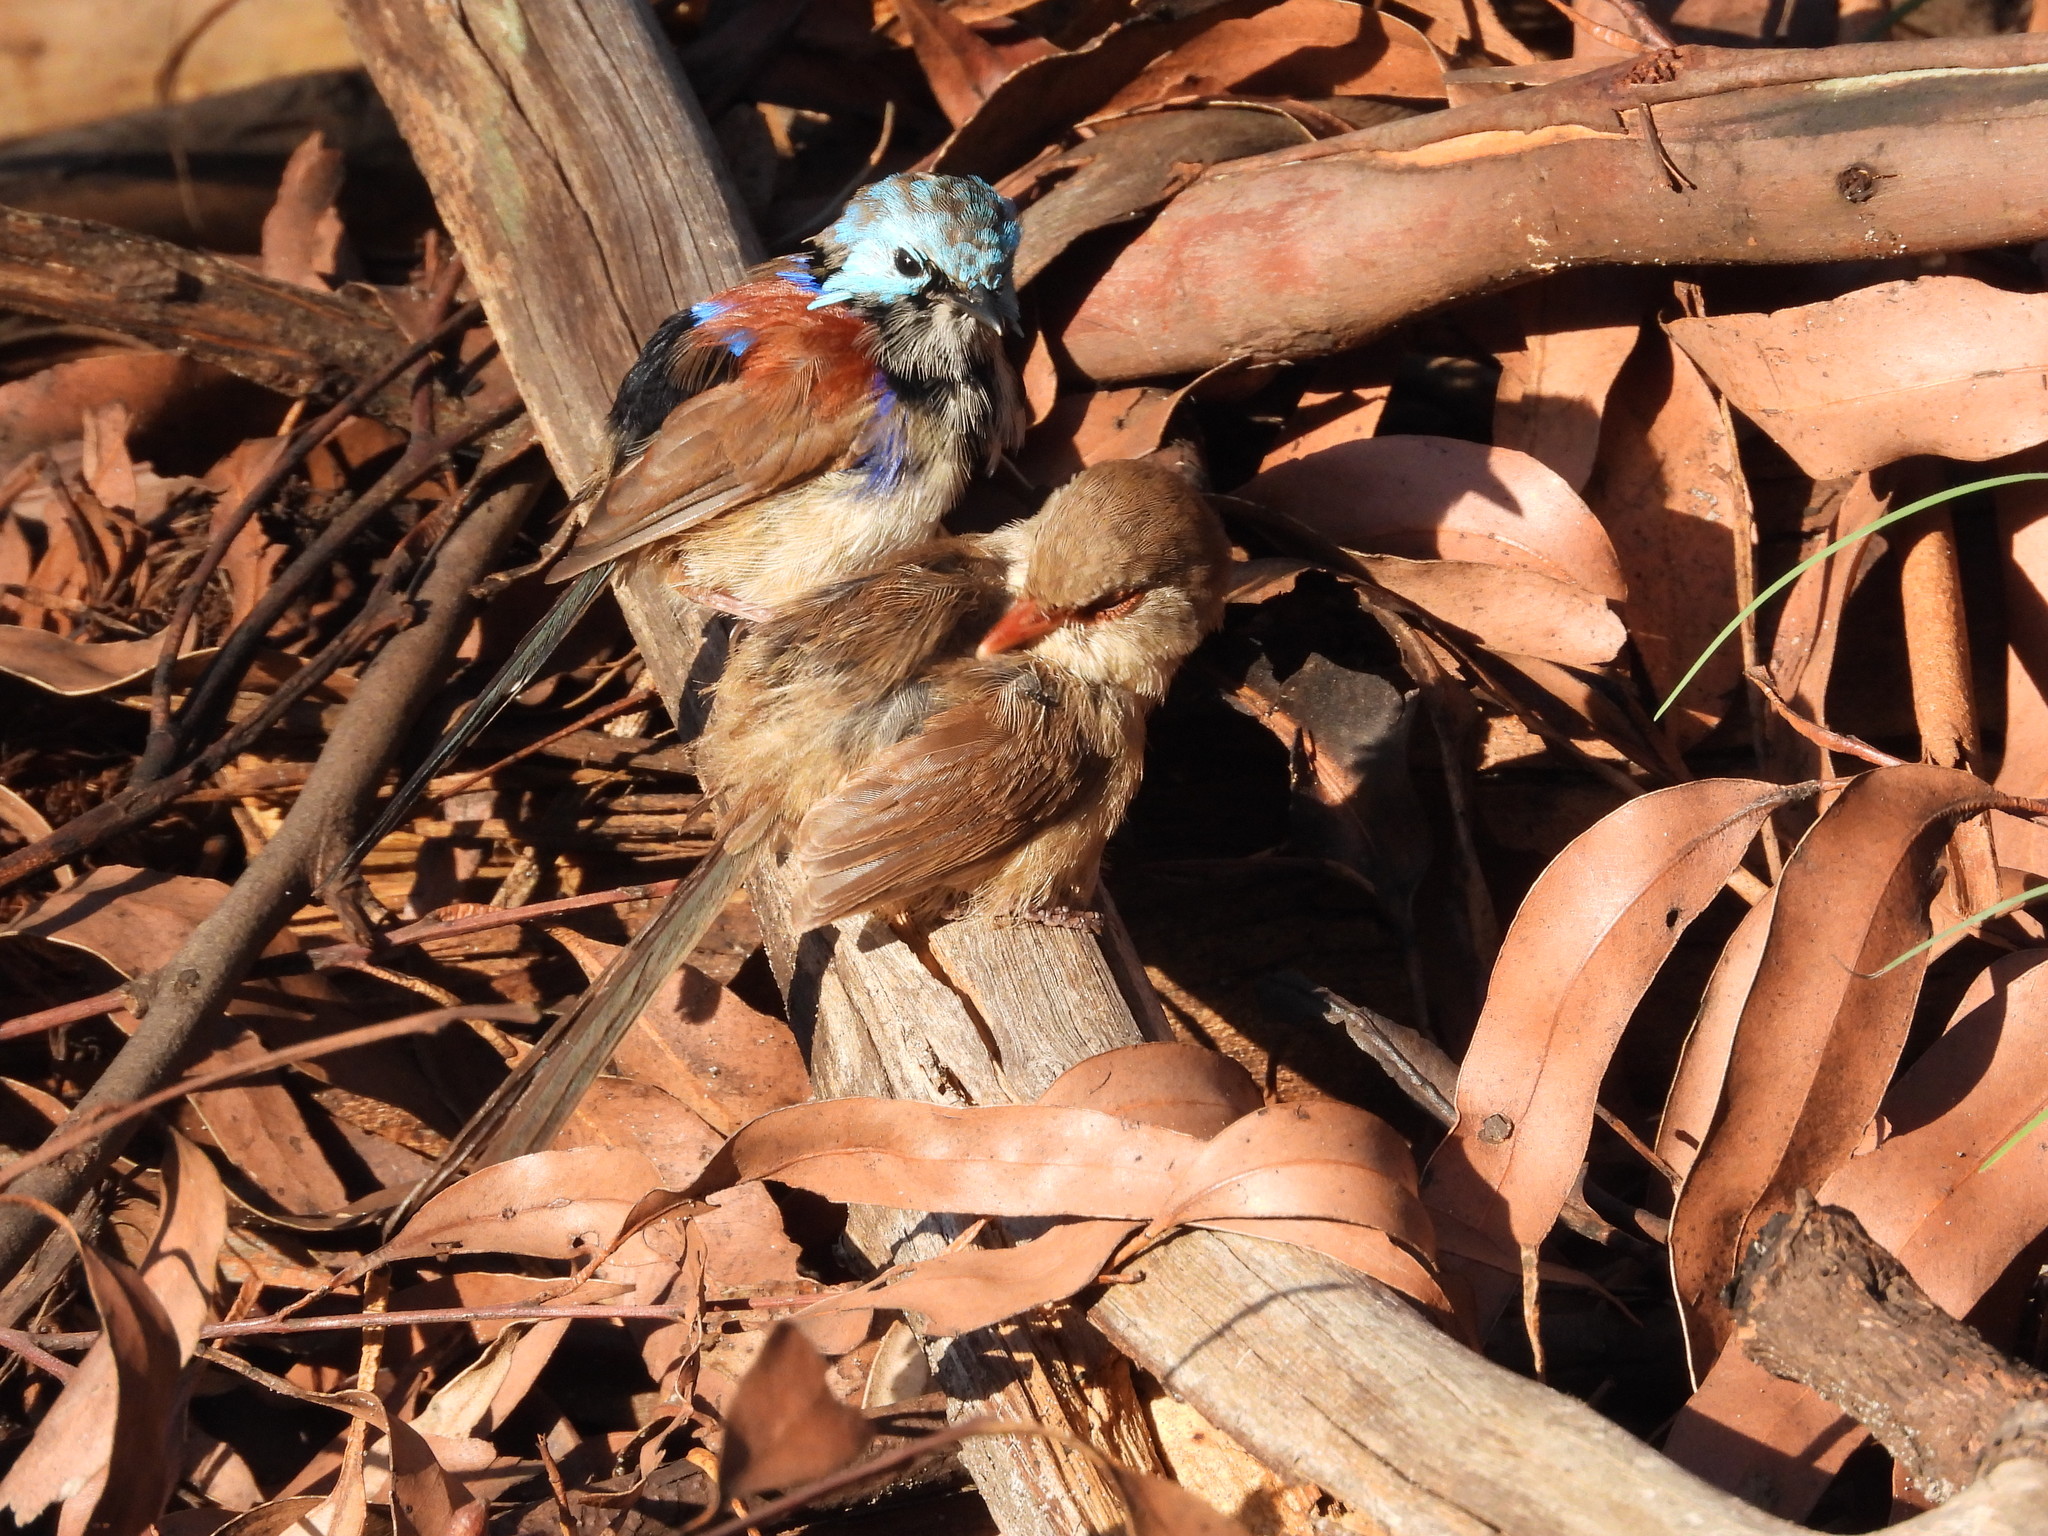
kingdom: Animalia
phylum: Chordata
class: Aves
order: Passeriformes
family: Maluridae
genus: Malurus
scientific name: Malurus lamberti
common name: Variegated fairywren
